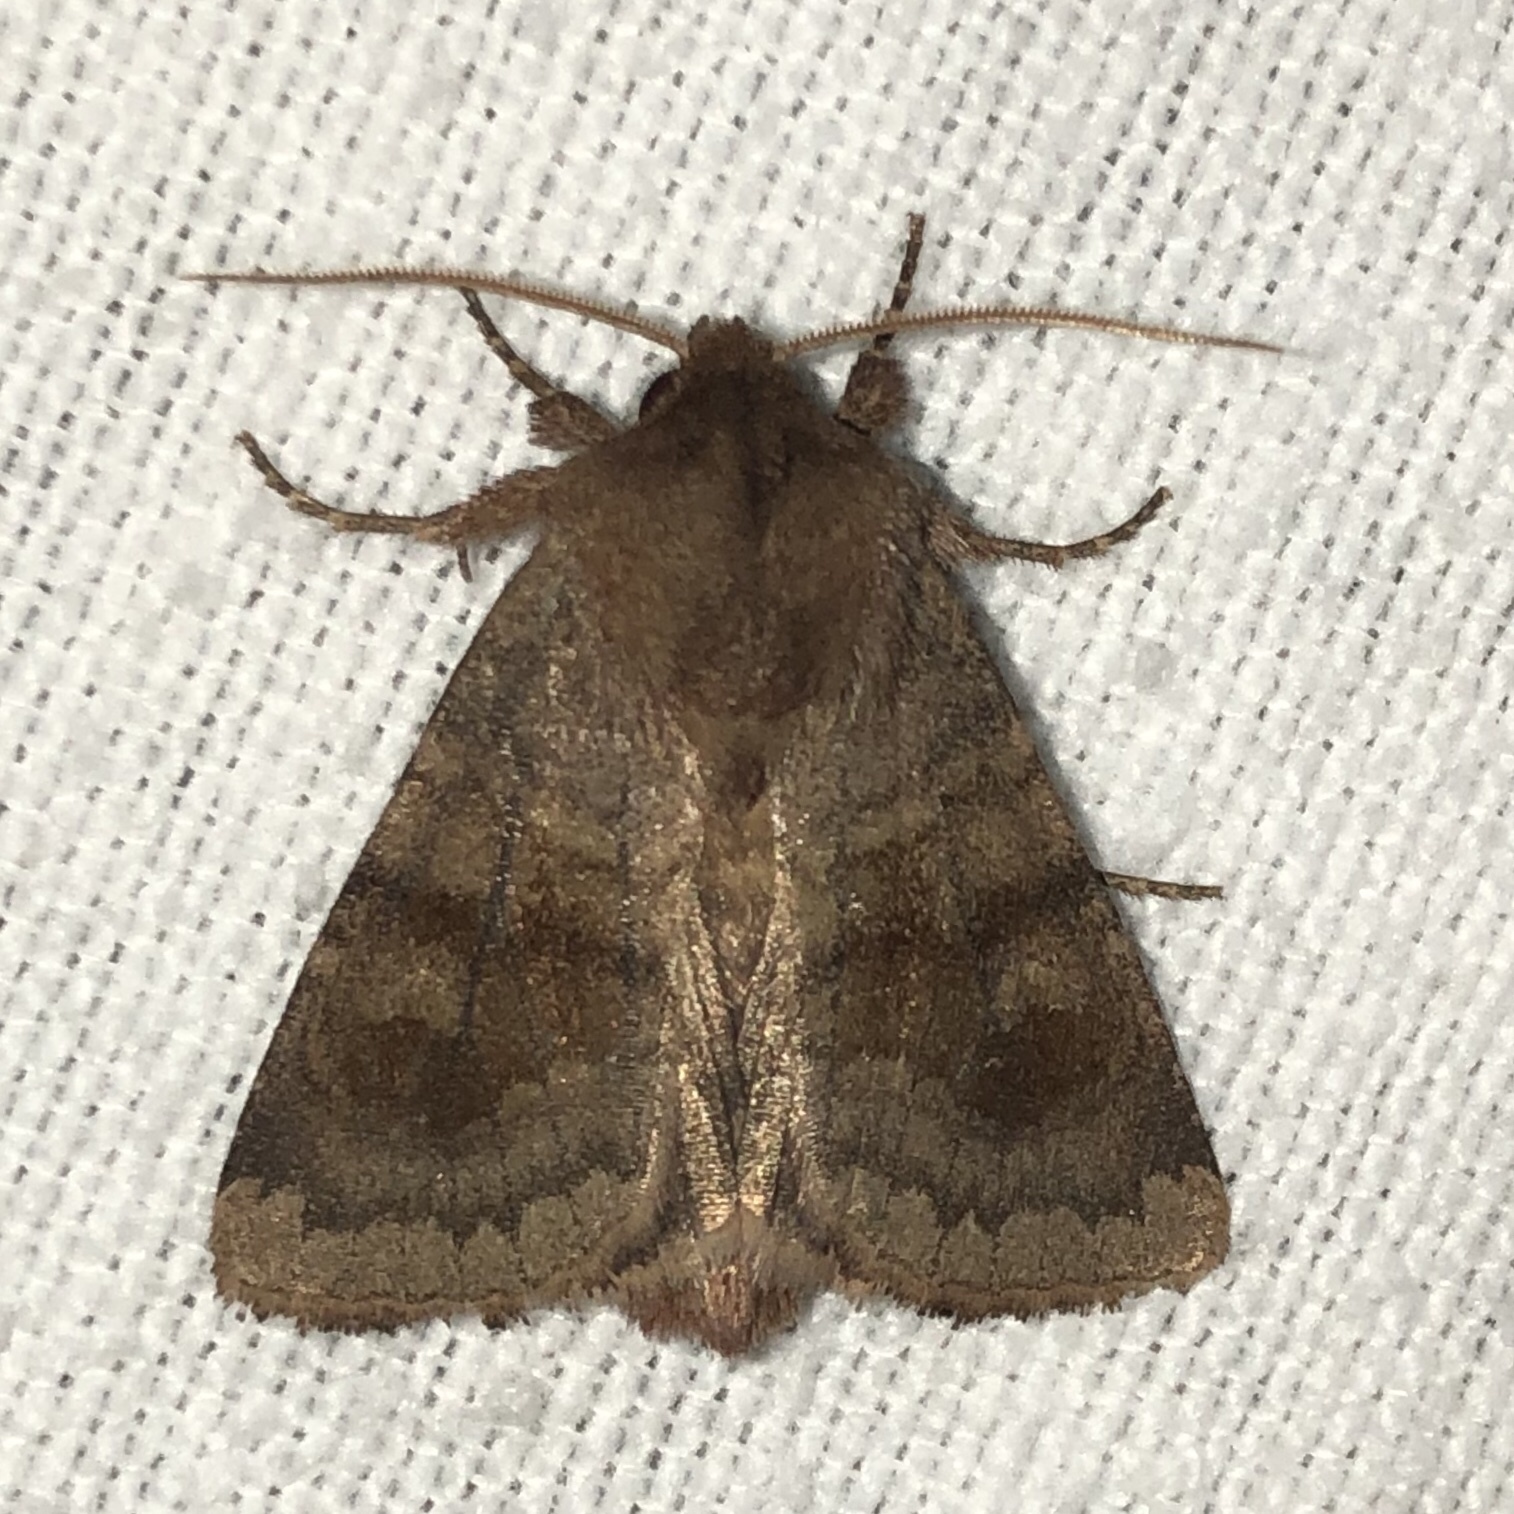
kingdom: Animalia
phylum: Arthropoda
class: Insecta
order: Lepidoptera
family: Noctuidae
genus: Nephelodes
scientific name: Nephelodes minians
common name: Bronzed cutworm
